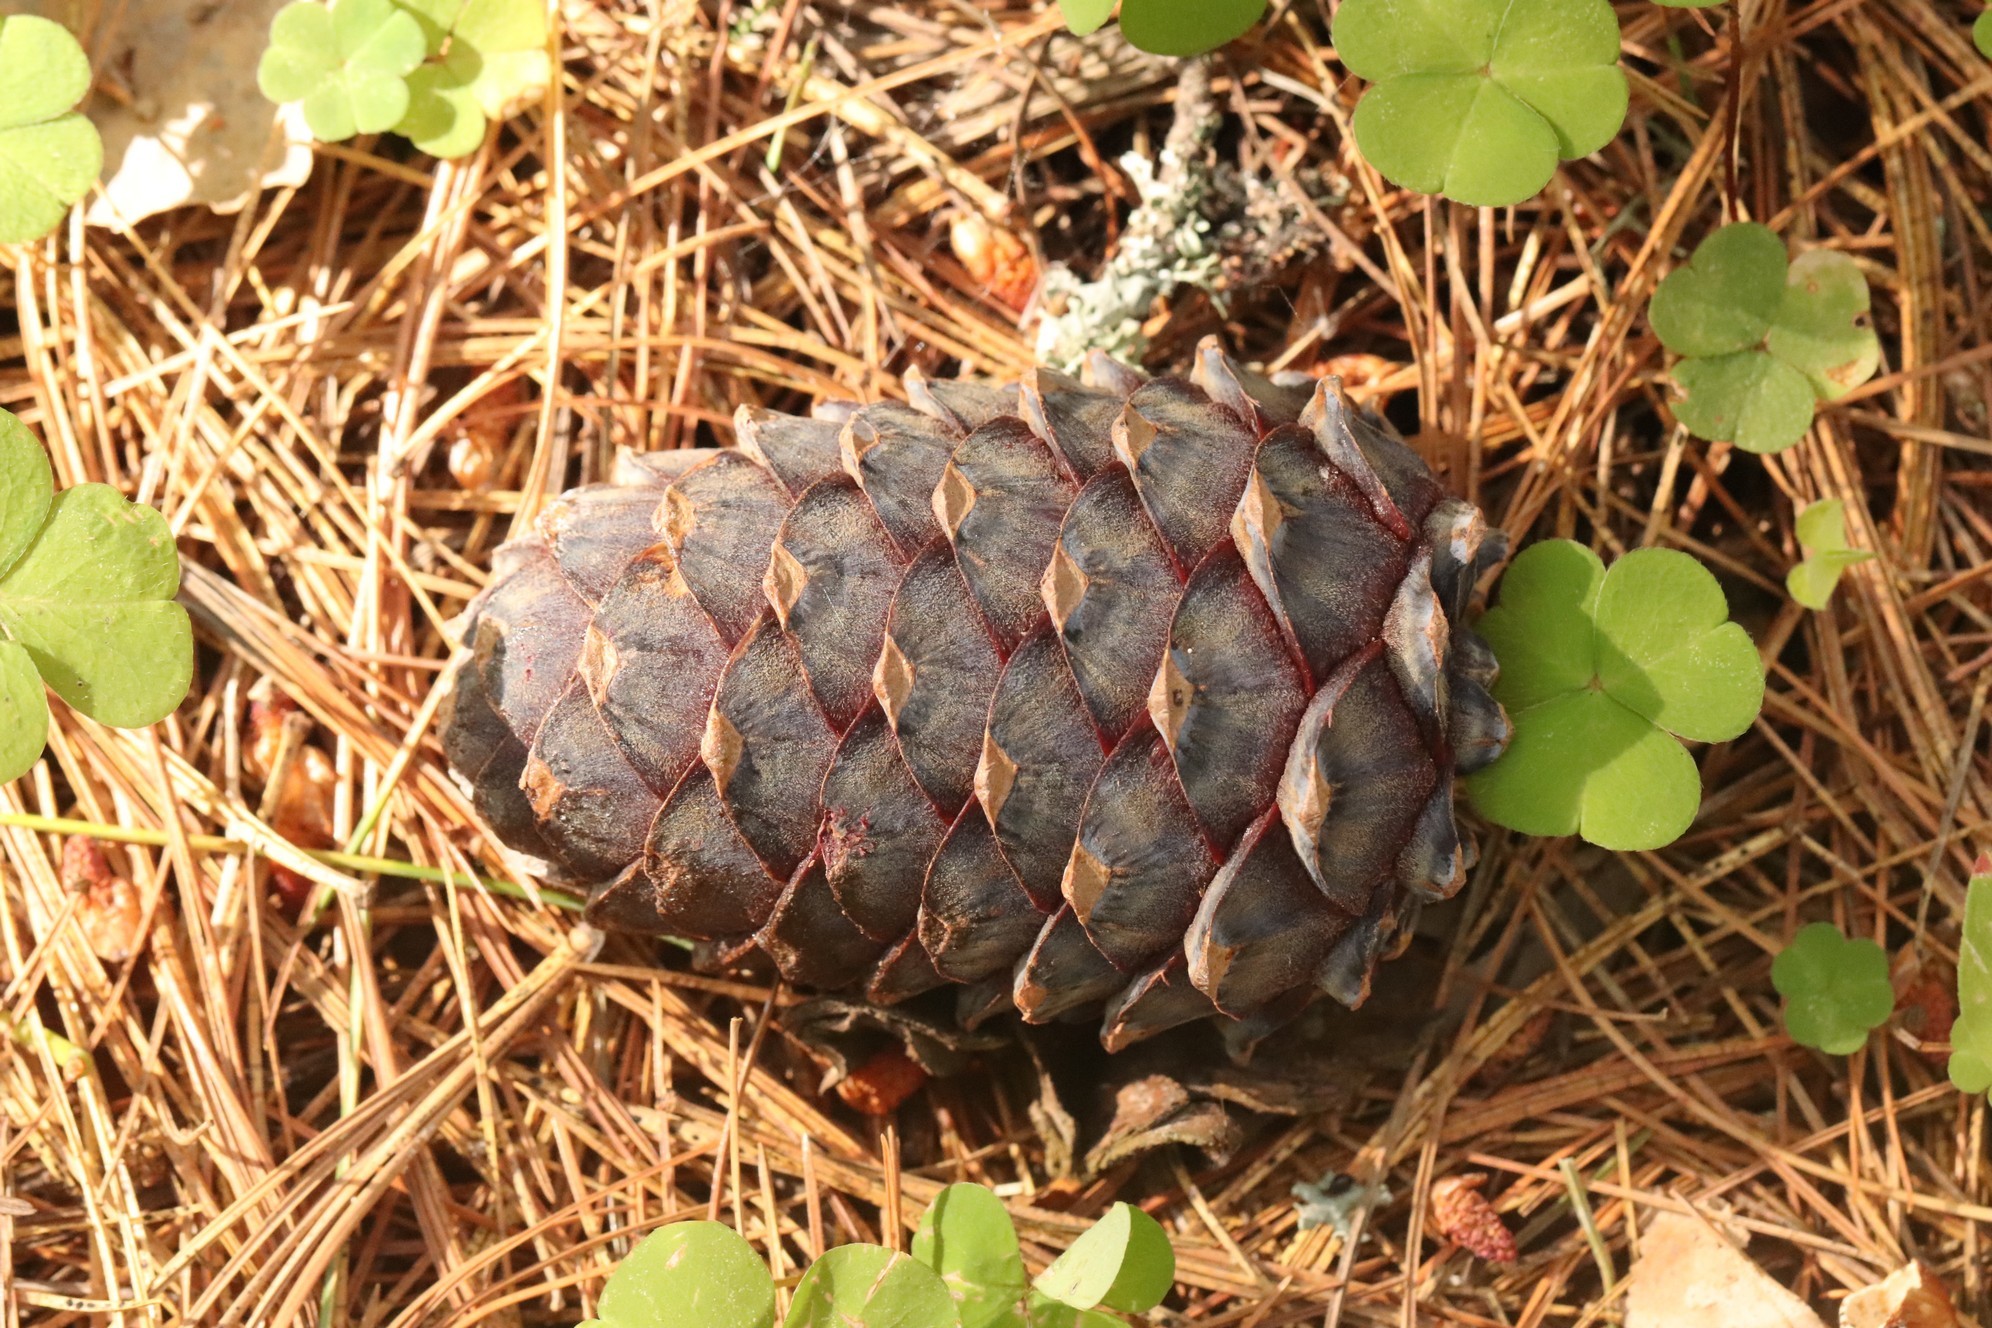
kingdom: Plantae
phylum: Tracheophyta
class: Pinopsida
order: Pinales
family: Pinaceae
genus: Pinus
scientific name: Pinus sibirica
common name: Siberian pine
